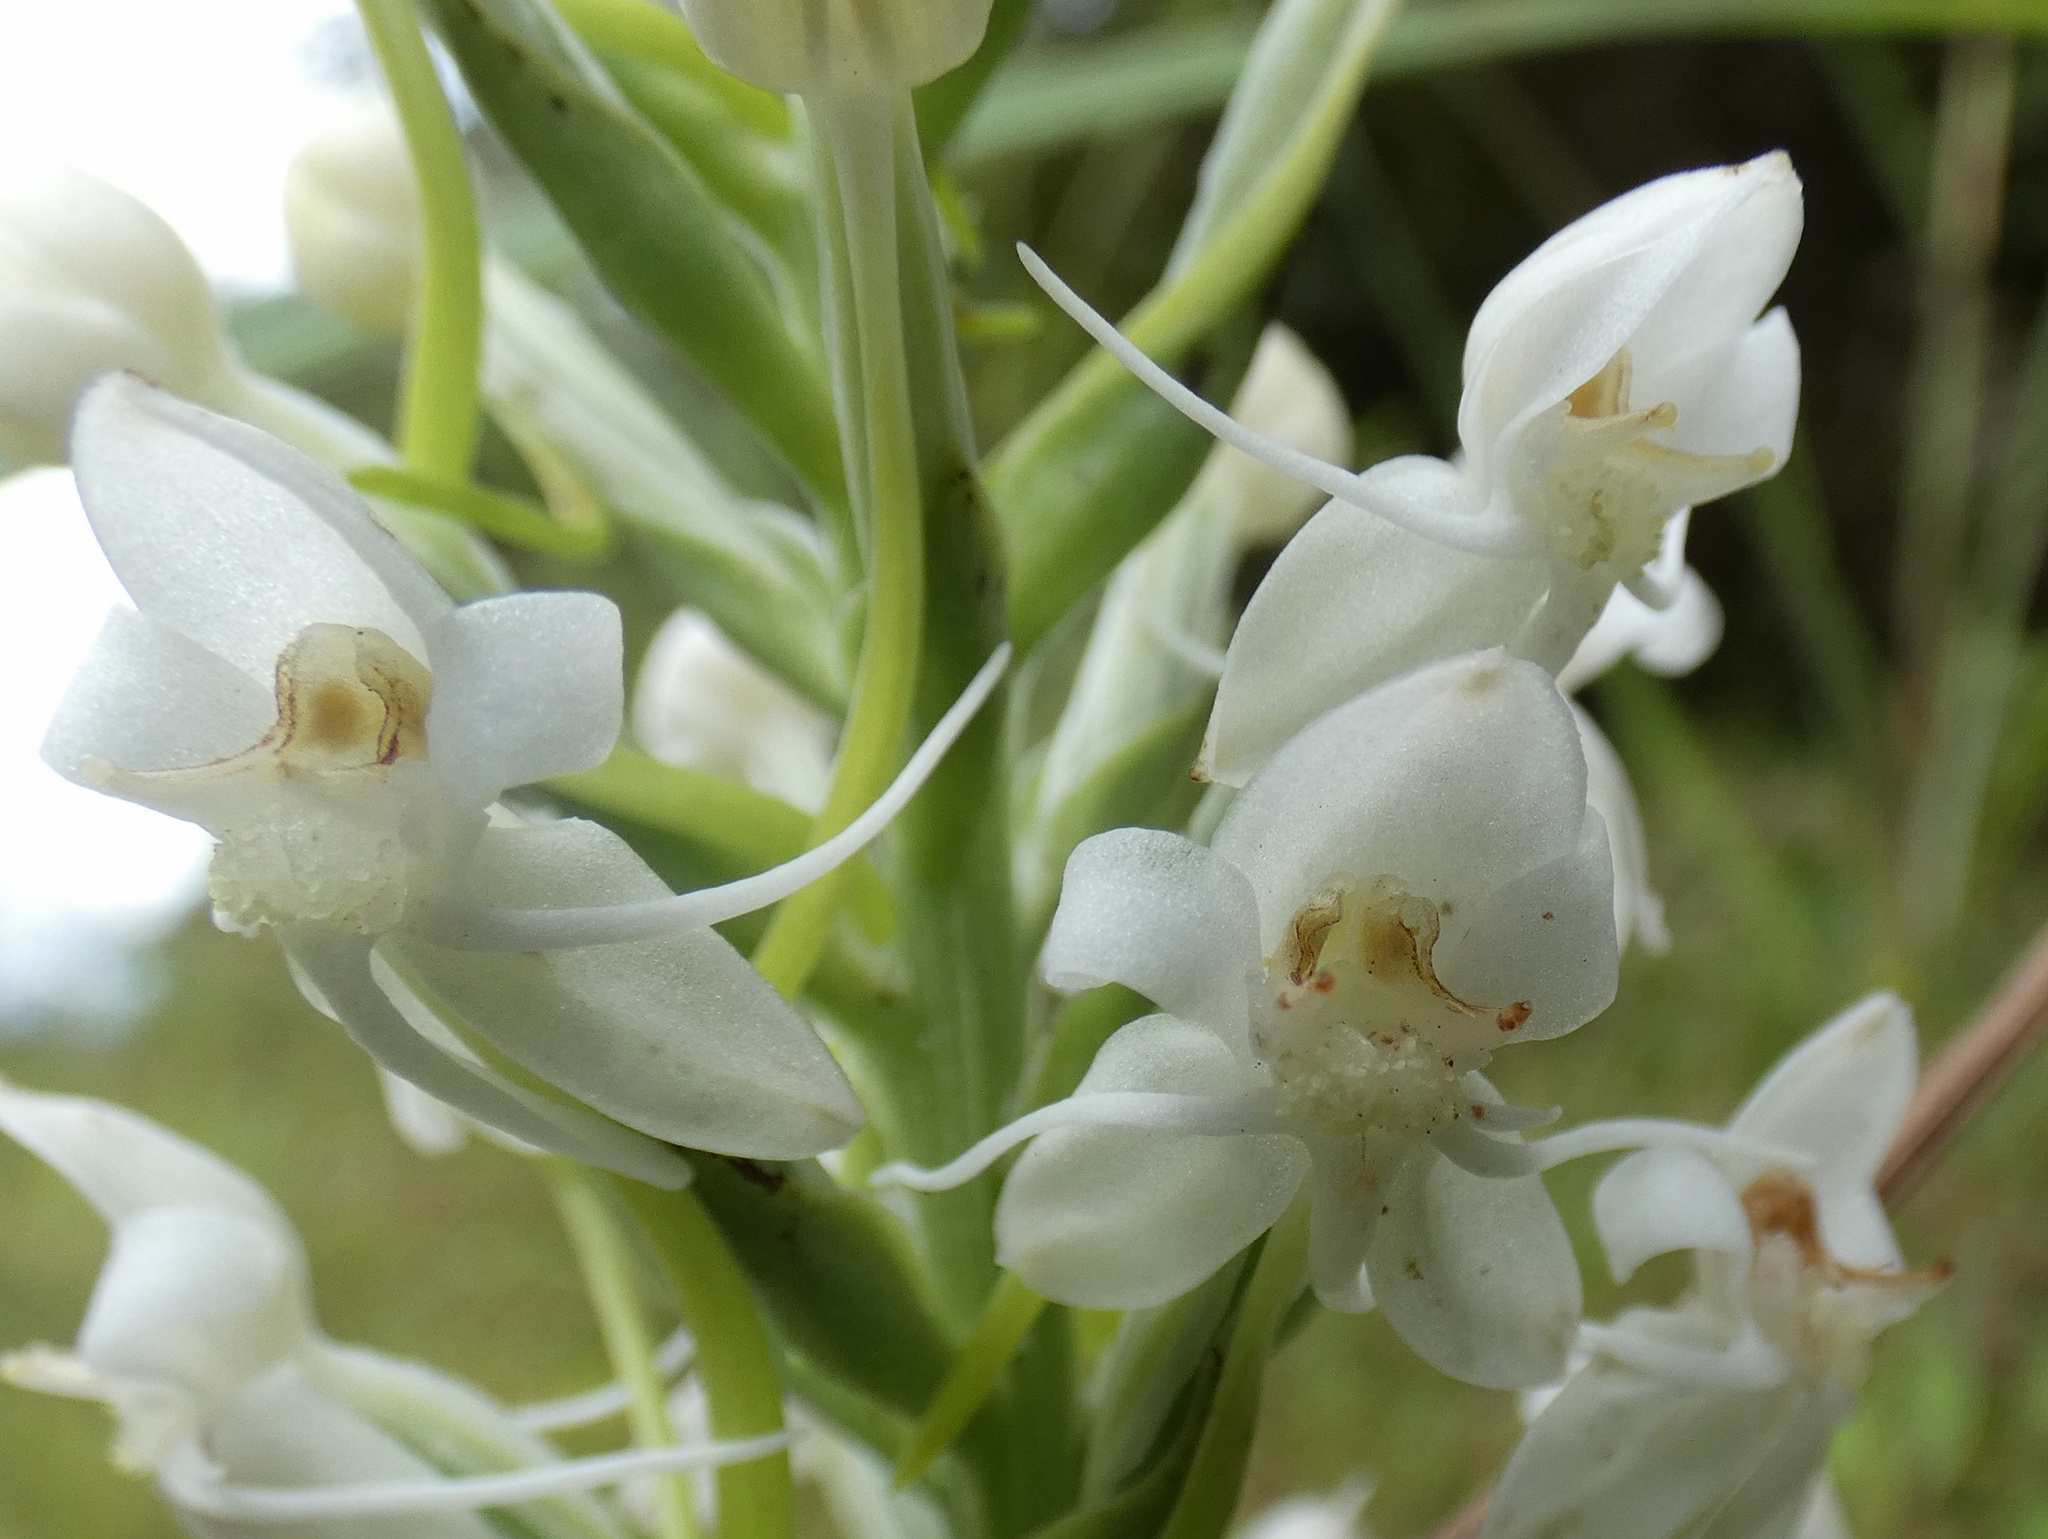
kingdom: Plantae
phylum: Tracheophyta
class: Liliopsida
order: Asparagales
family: Orchidaceae
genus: Habenaria
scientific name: Habenaria monorrhiza
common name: Tropical bog orchid
